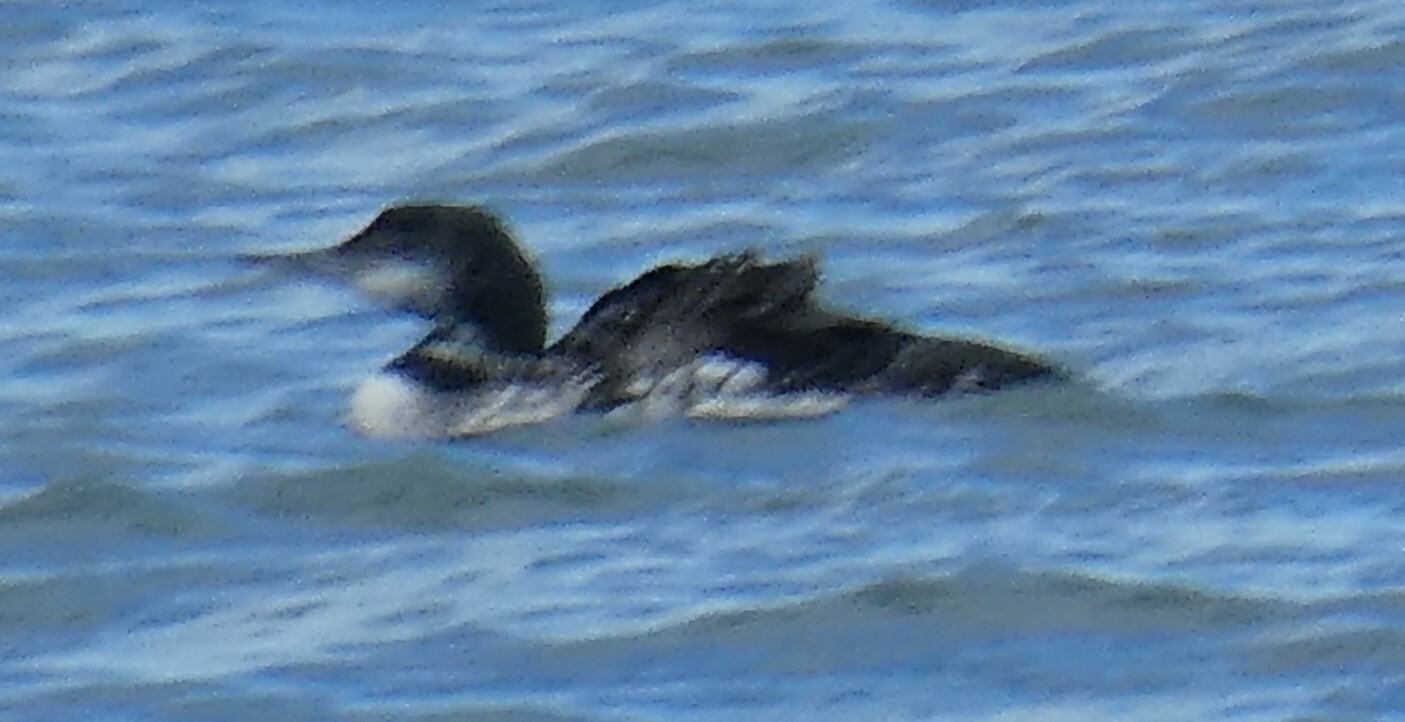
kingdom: Animalia
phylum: Chordata
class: Aves
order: Gaviiformes
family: Gaviidae
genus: Gavia
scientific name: Gavia immer
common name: Common loon
